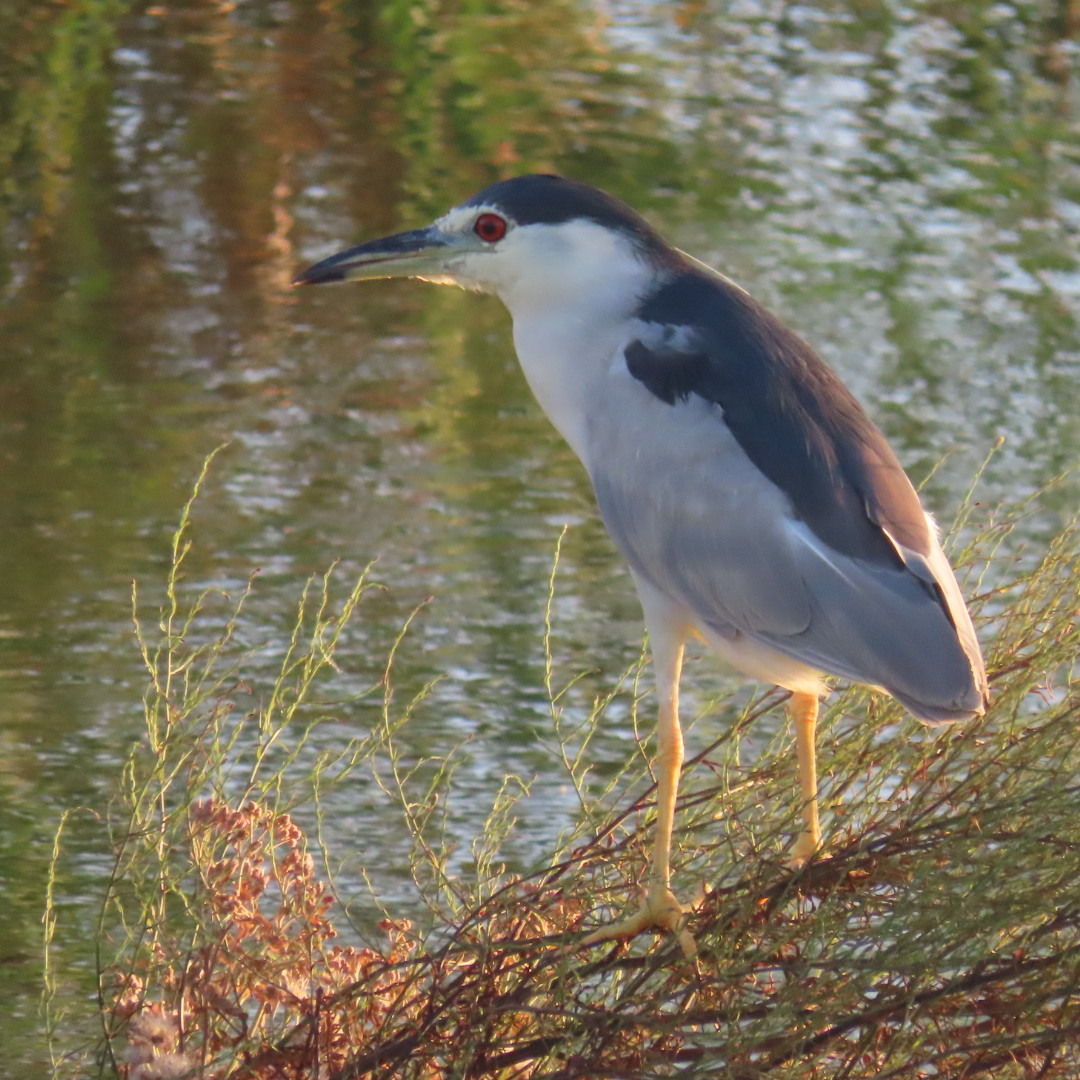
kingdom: Animalia
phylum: Chordata
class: Aves
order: Pelecaniformes
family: Ardeidae
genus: Nycticorax
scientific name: Nycticorax nycticorax
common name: Black-crowned night heron
